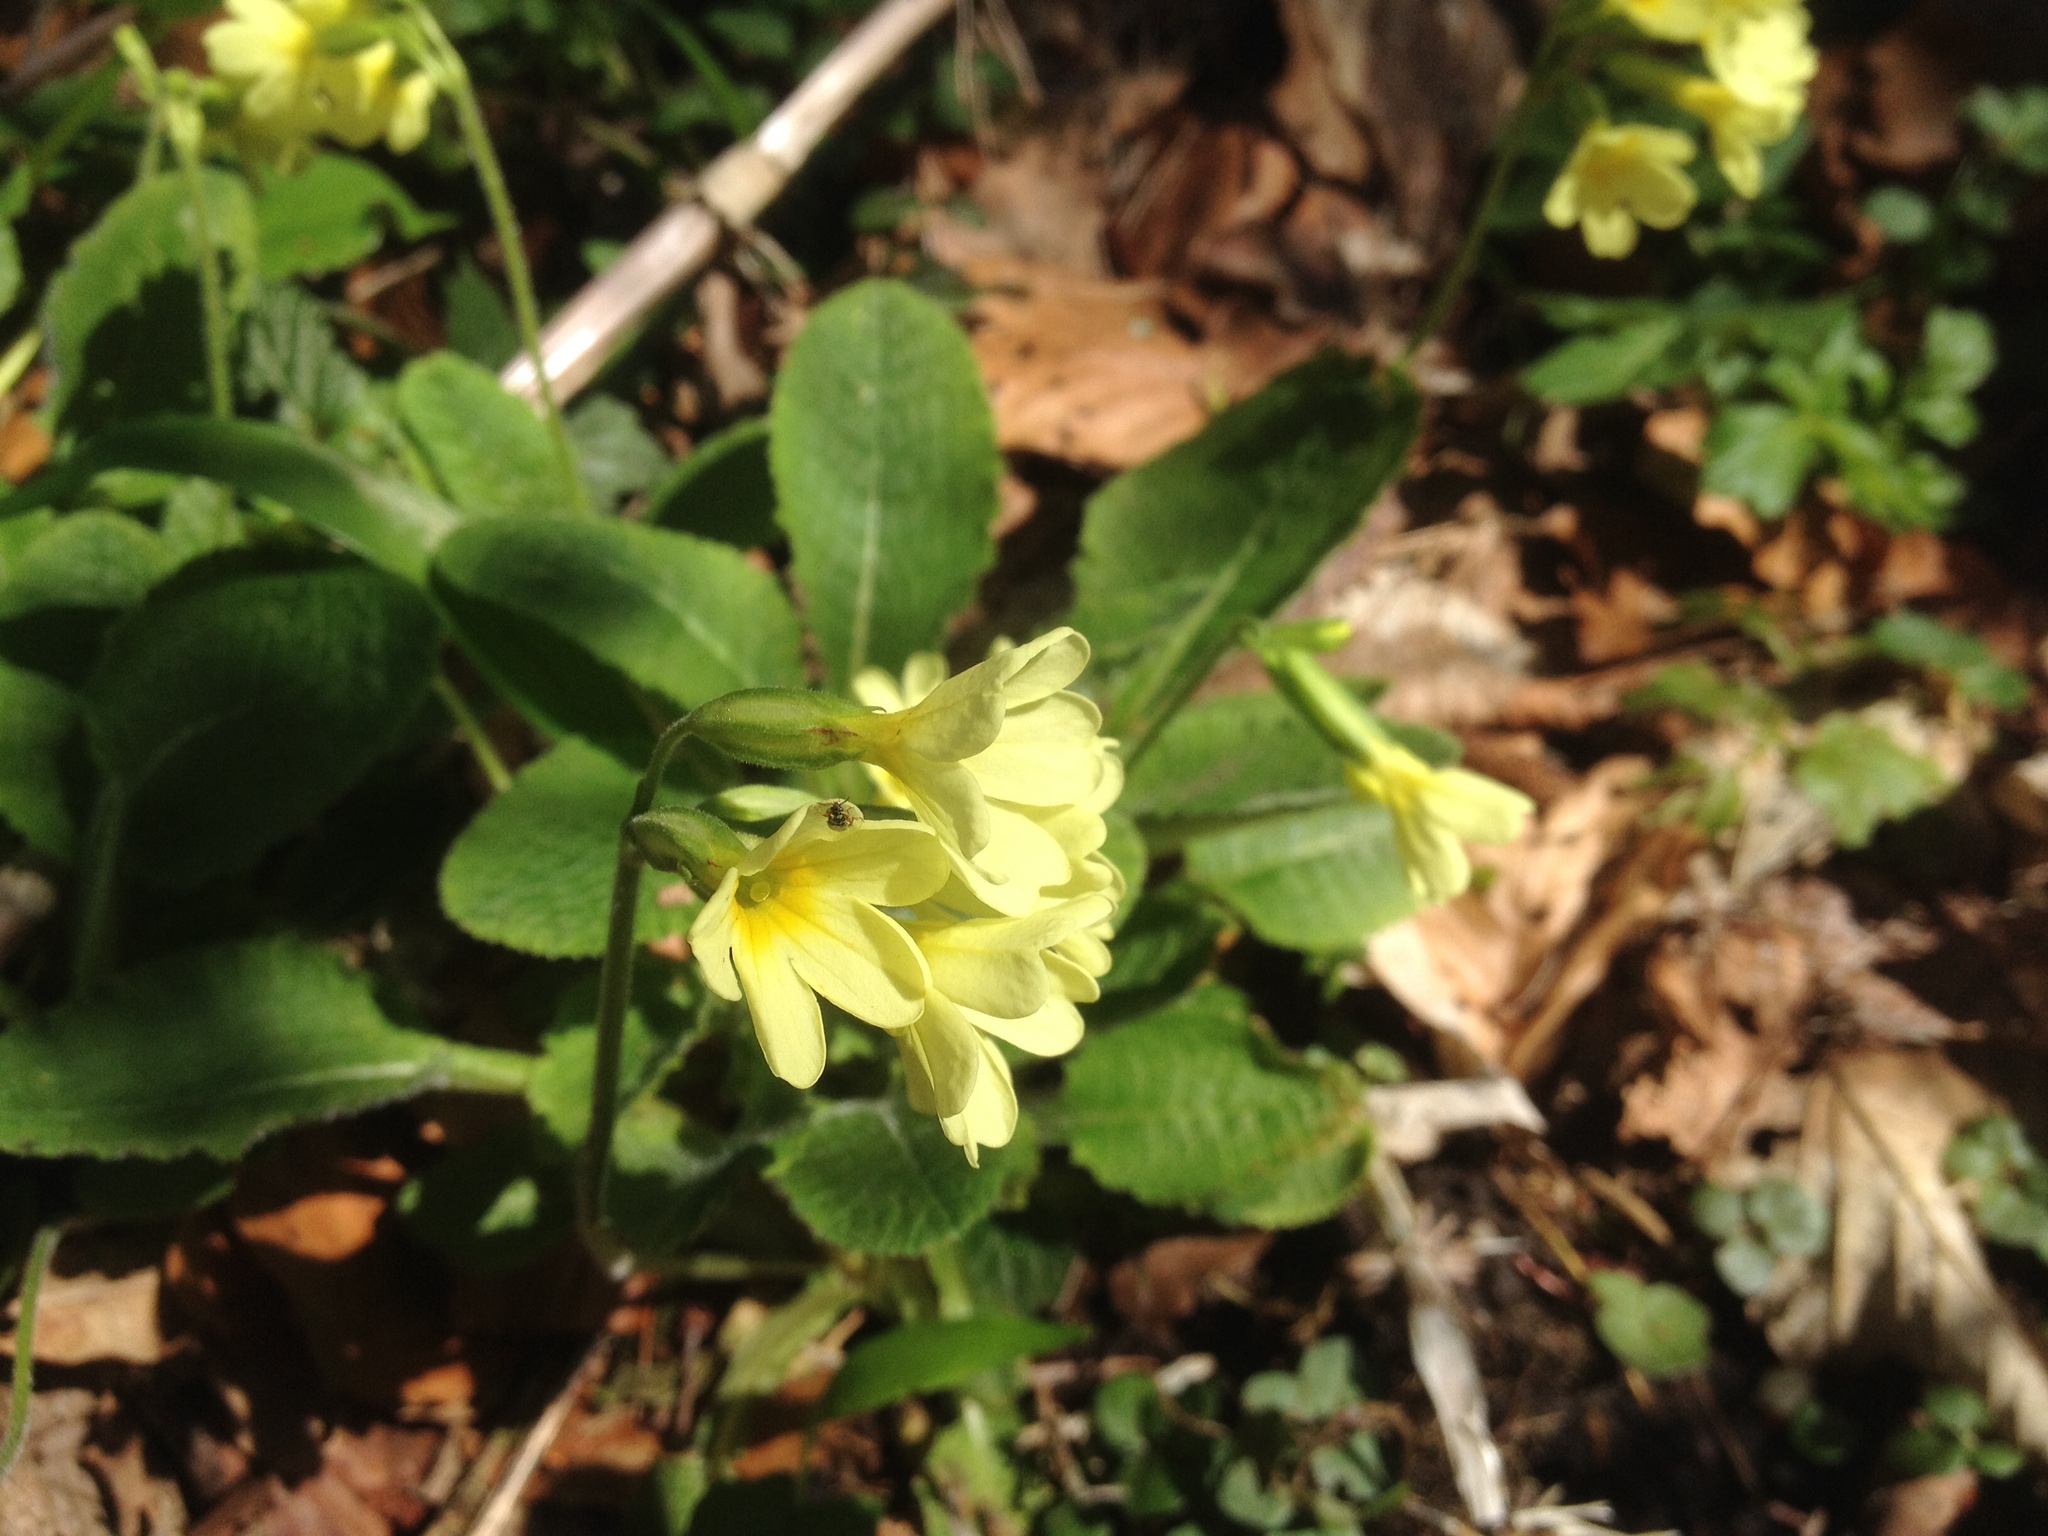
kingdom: Plantae
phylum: Tracheophyta
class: Magnoliopsida
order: Ericales
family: Primulaceae
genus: Primula
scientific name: Primula elatior
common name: Oxlip
